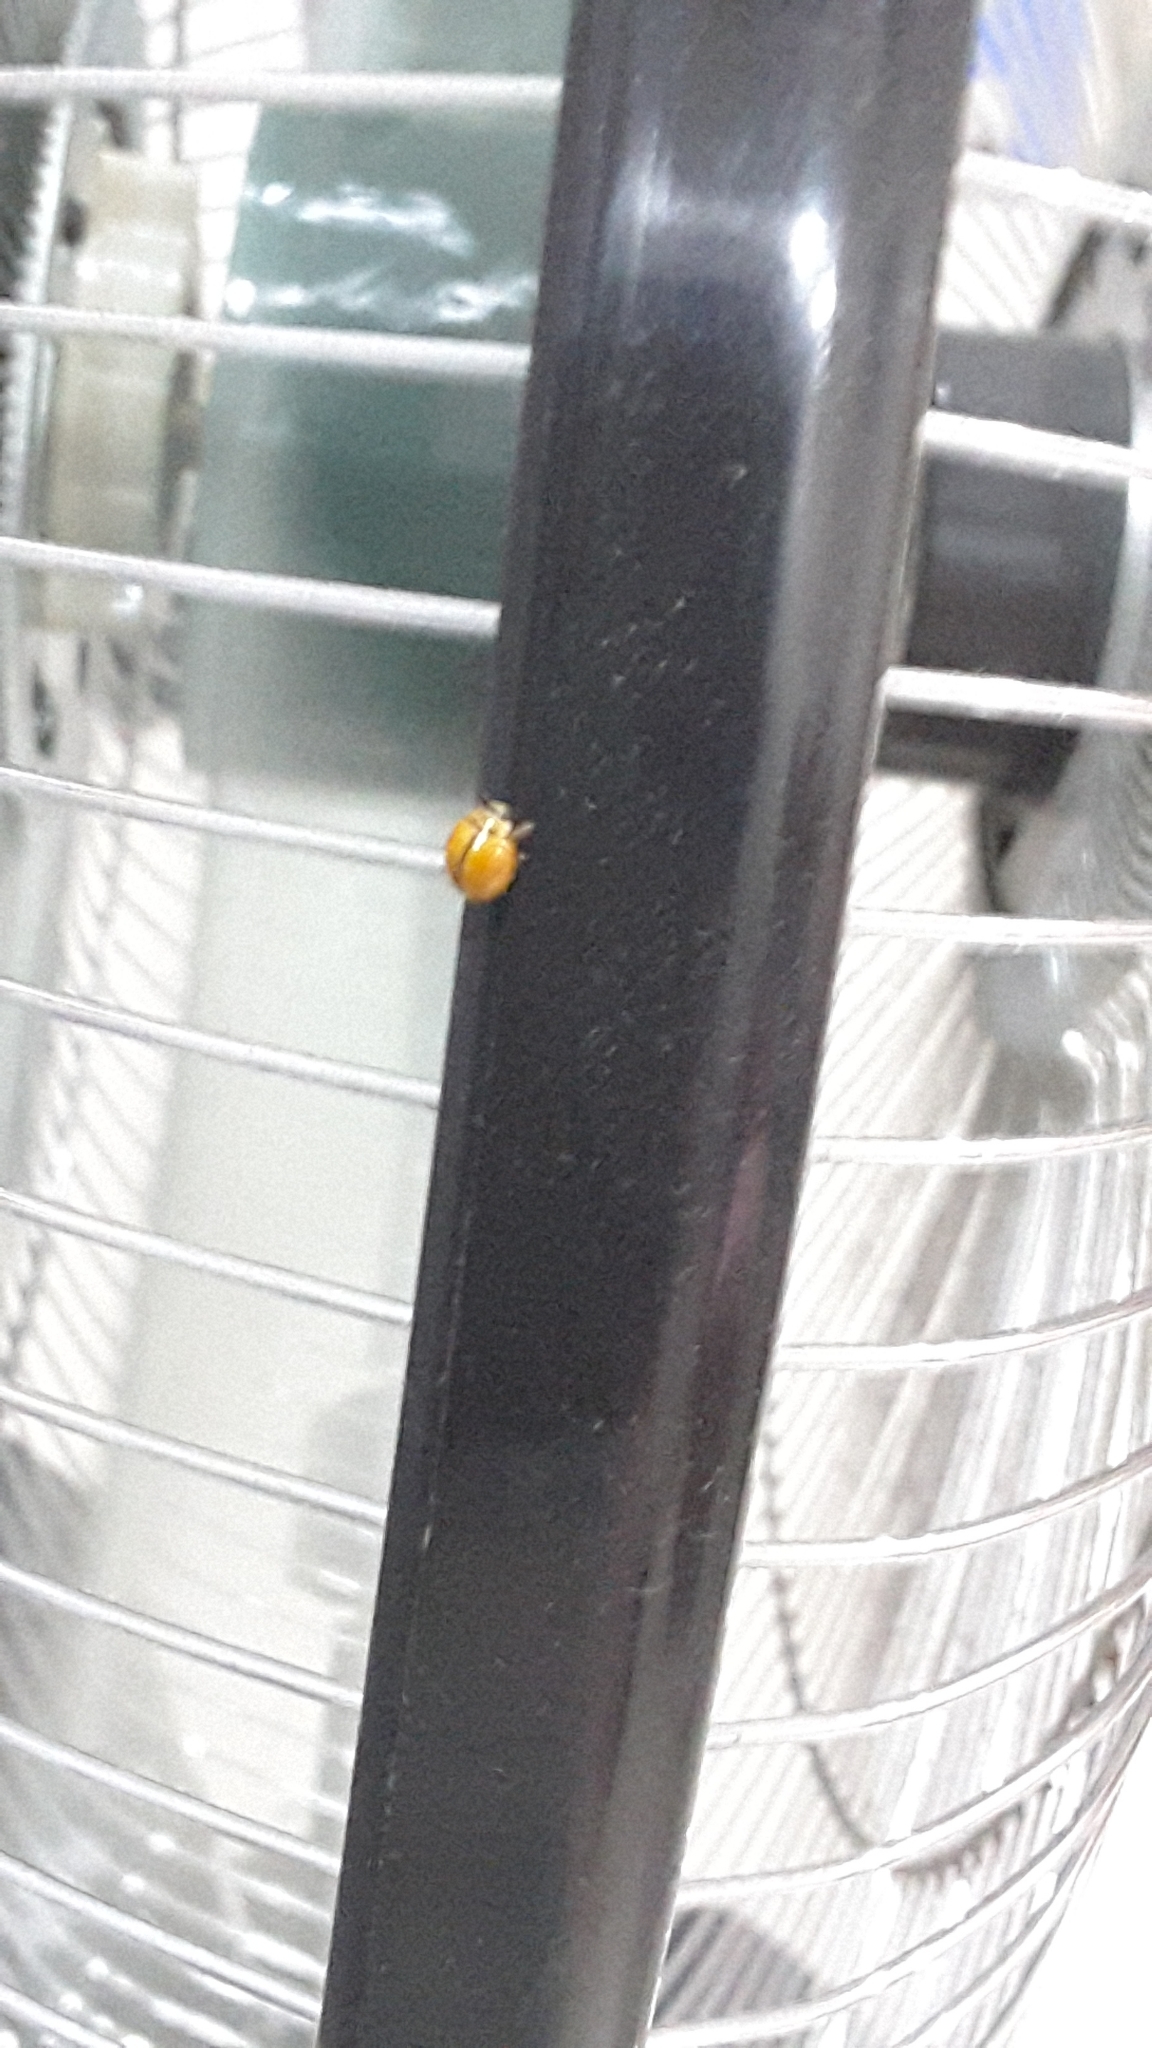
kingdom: Animalia
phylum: Arthropoda
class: Insecta
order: Coleoptera
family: Coccinellidae
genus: Micraspis
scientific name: Micraspis discolor
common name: Lady beetle
